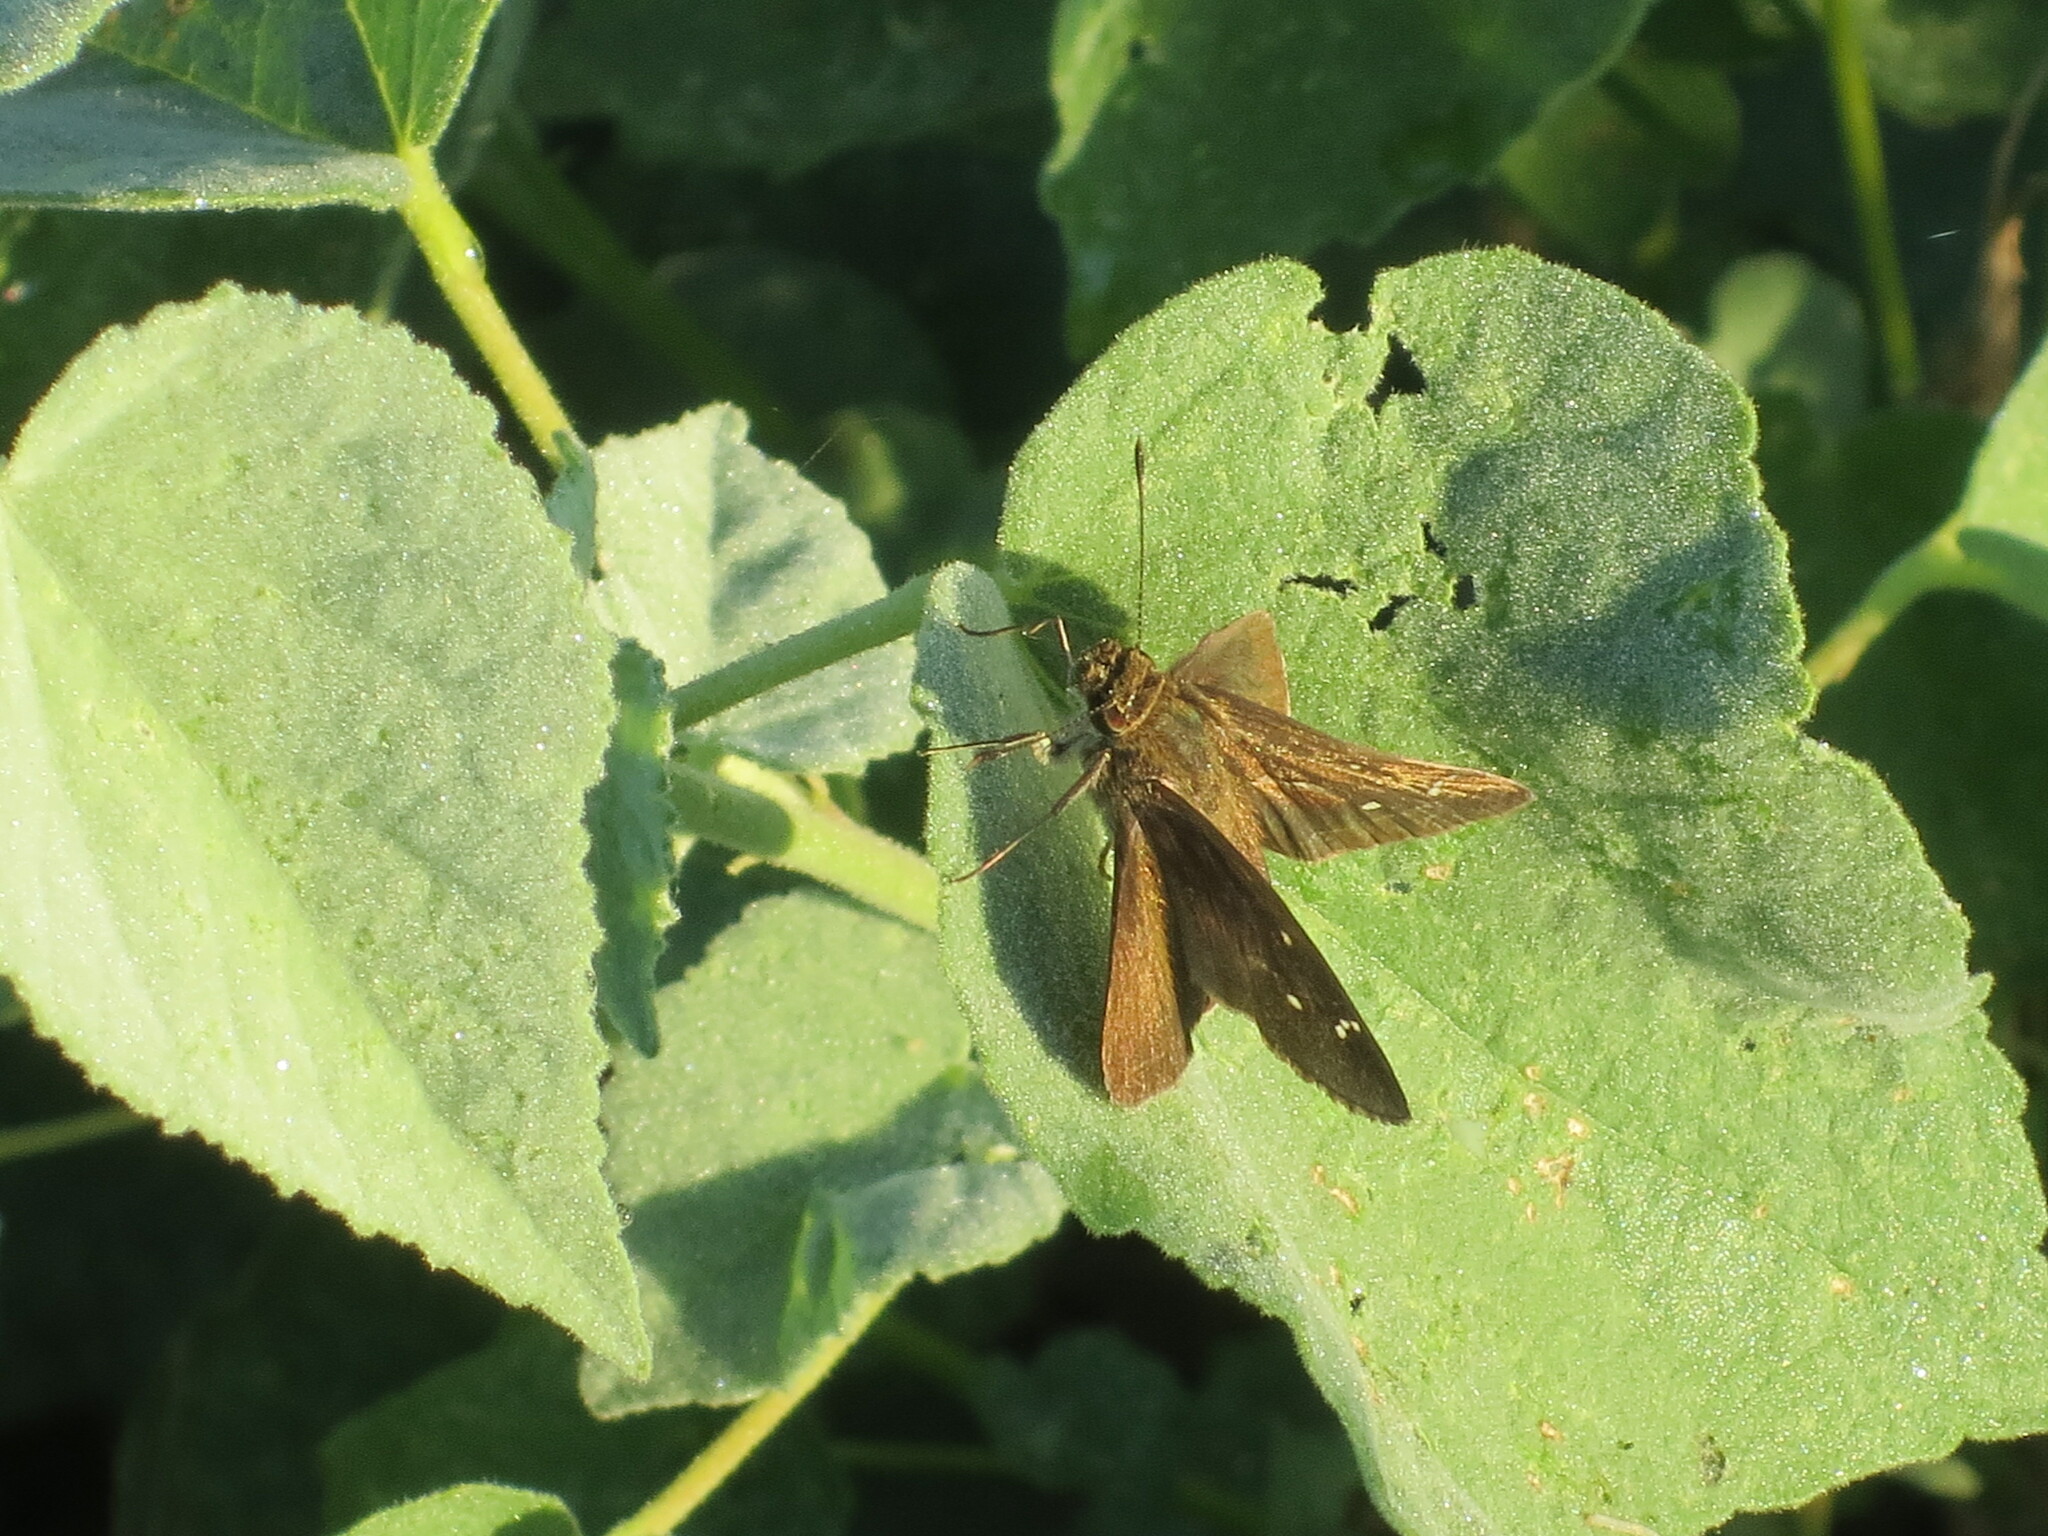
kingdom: Animalia
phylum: Arthropoda
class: Insecta
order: Lepidoptera
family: Hesperiidae
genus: Lerema
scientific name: Lerema accius
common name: Clouded skipper
